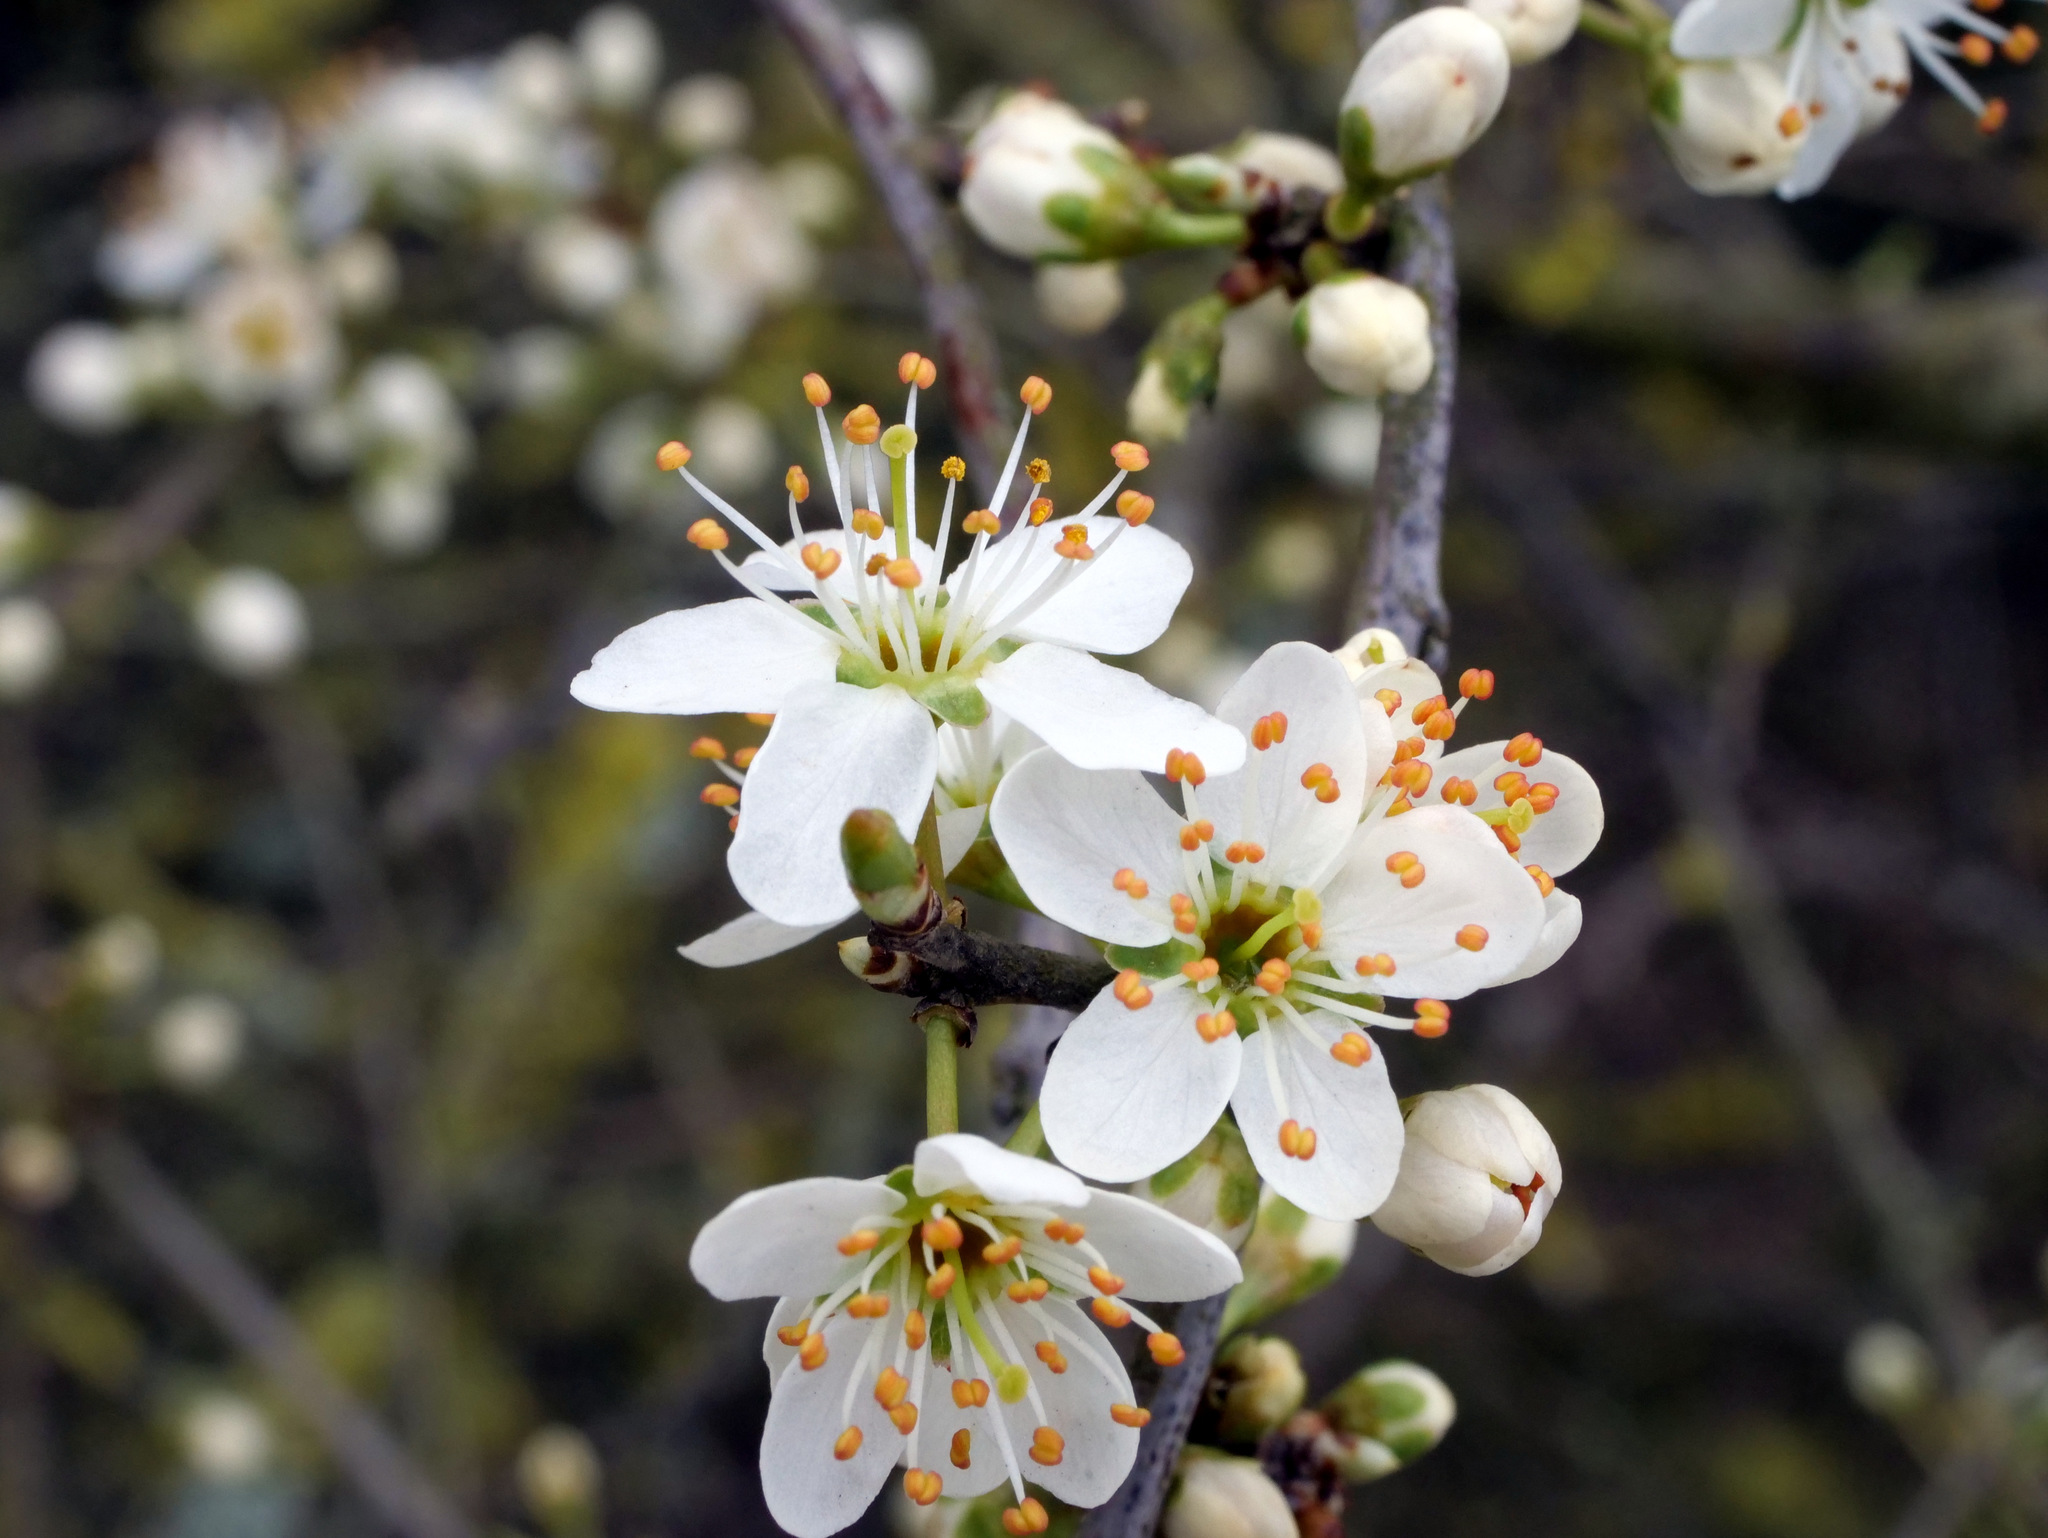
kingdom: Plantae
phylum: Tracheophyta
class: Magnoliopsida
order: Rosales
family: Rosaceae
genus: Prunus
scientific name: Prunus spinosa
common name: Blackthorn
